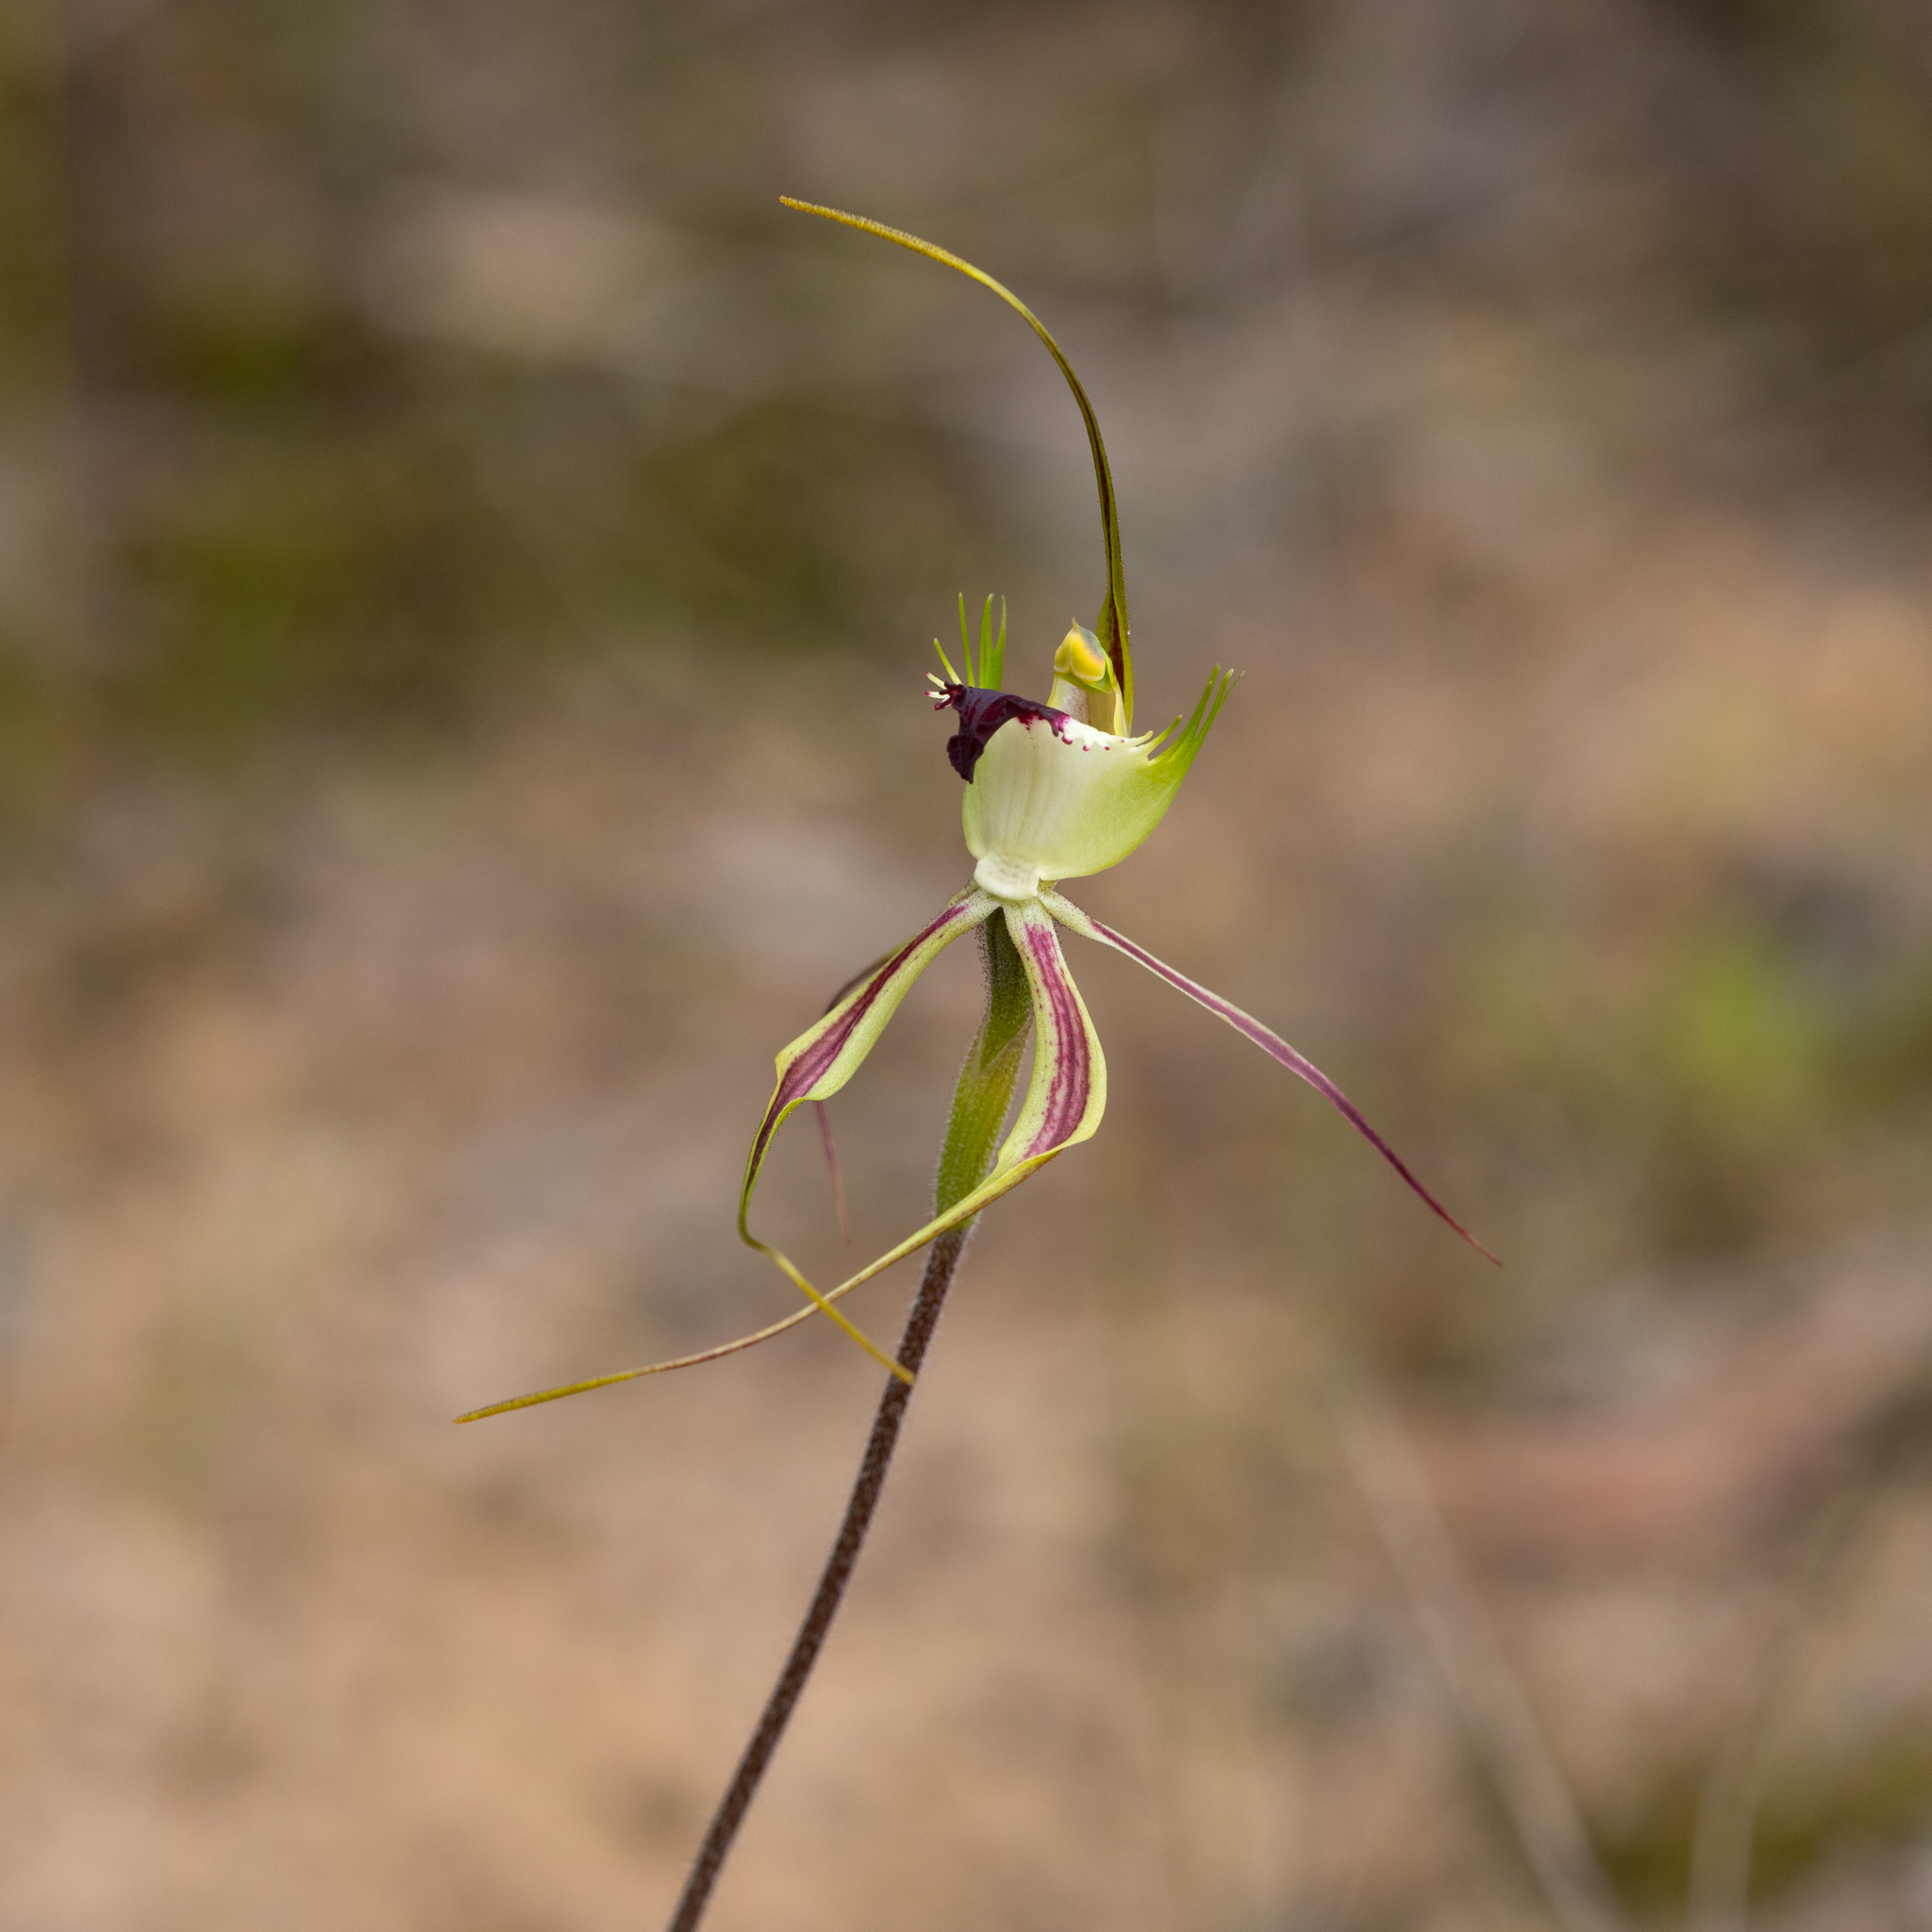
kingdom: Plantae
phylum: Tracheophyta
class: Liliopsida
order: Asparagales
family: Orchidaceae
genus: Caladenia
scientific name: Caladenia tentaculata
